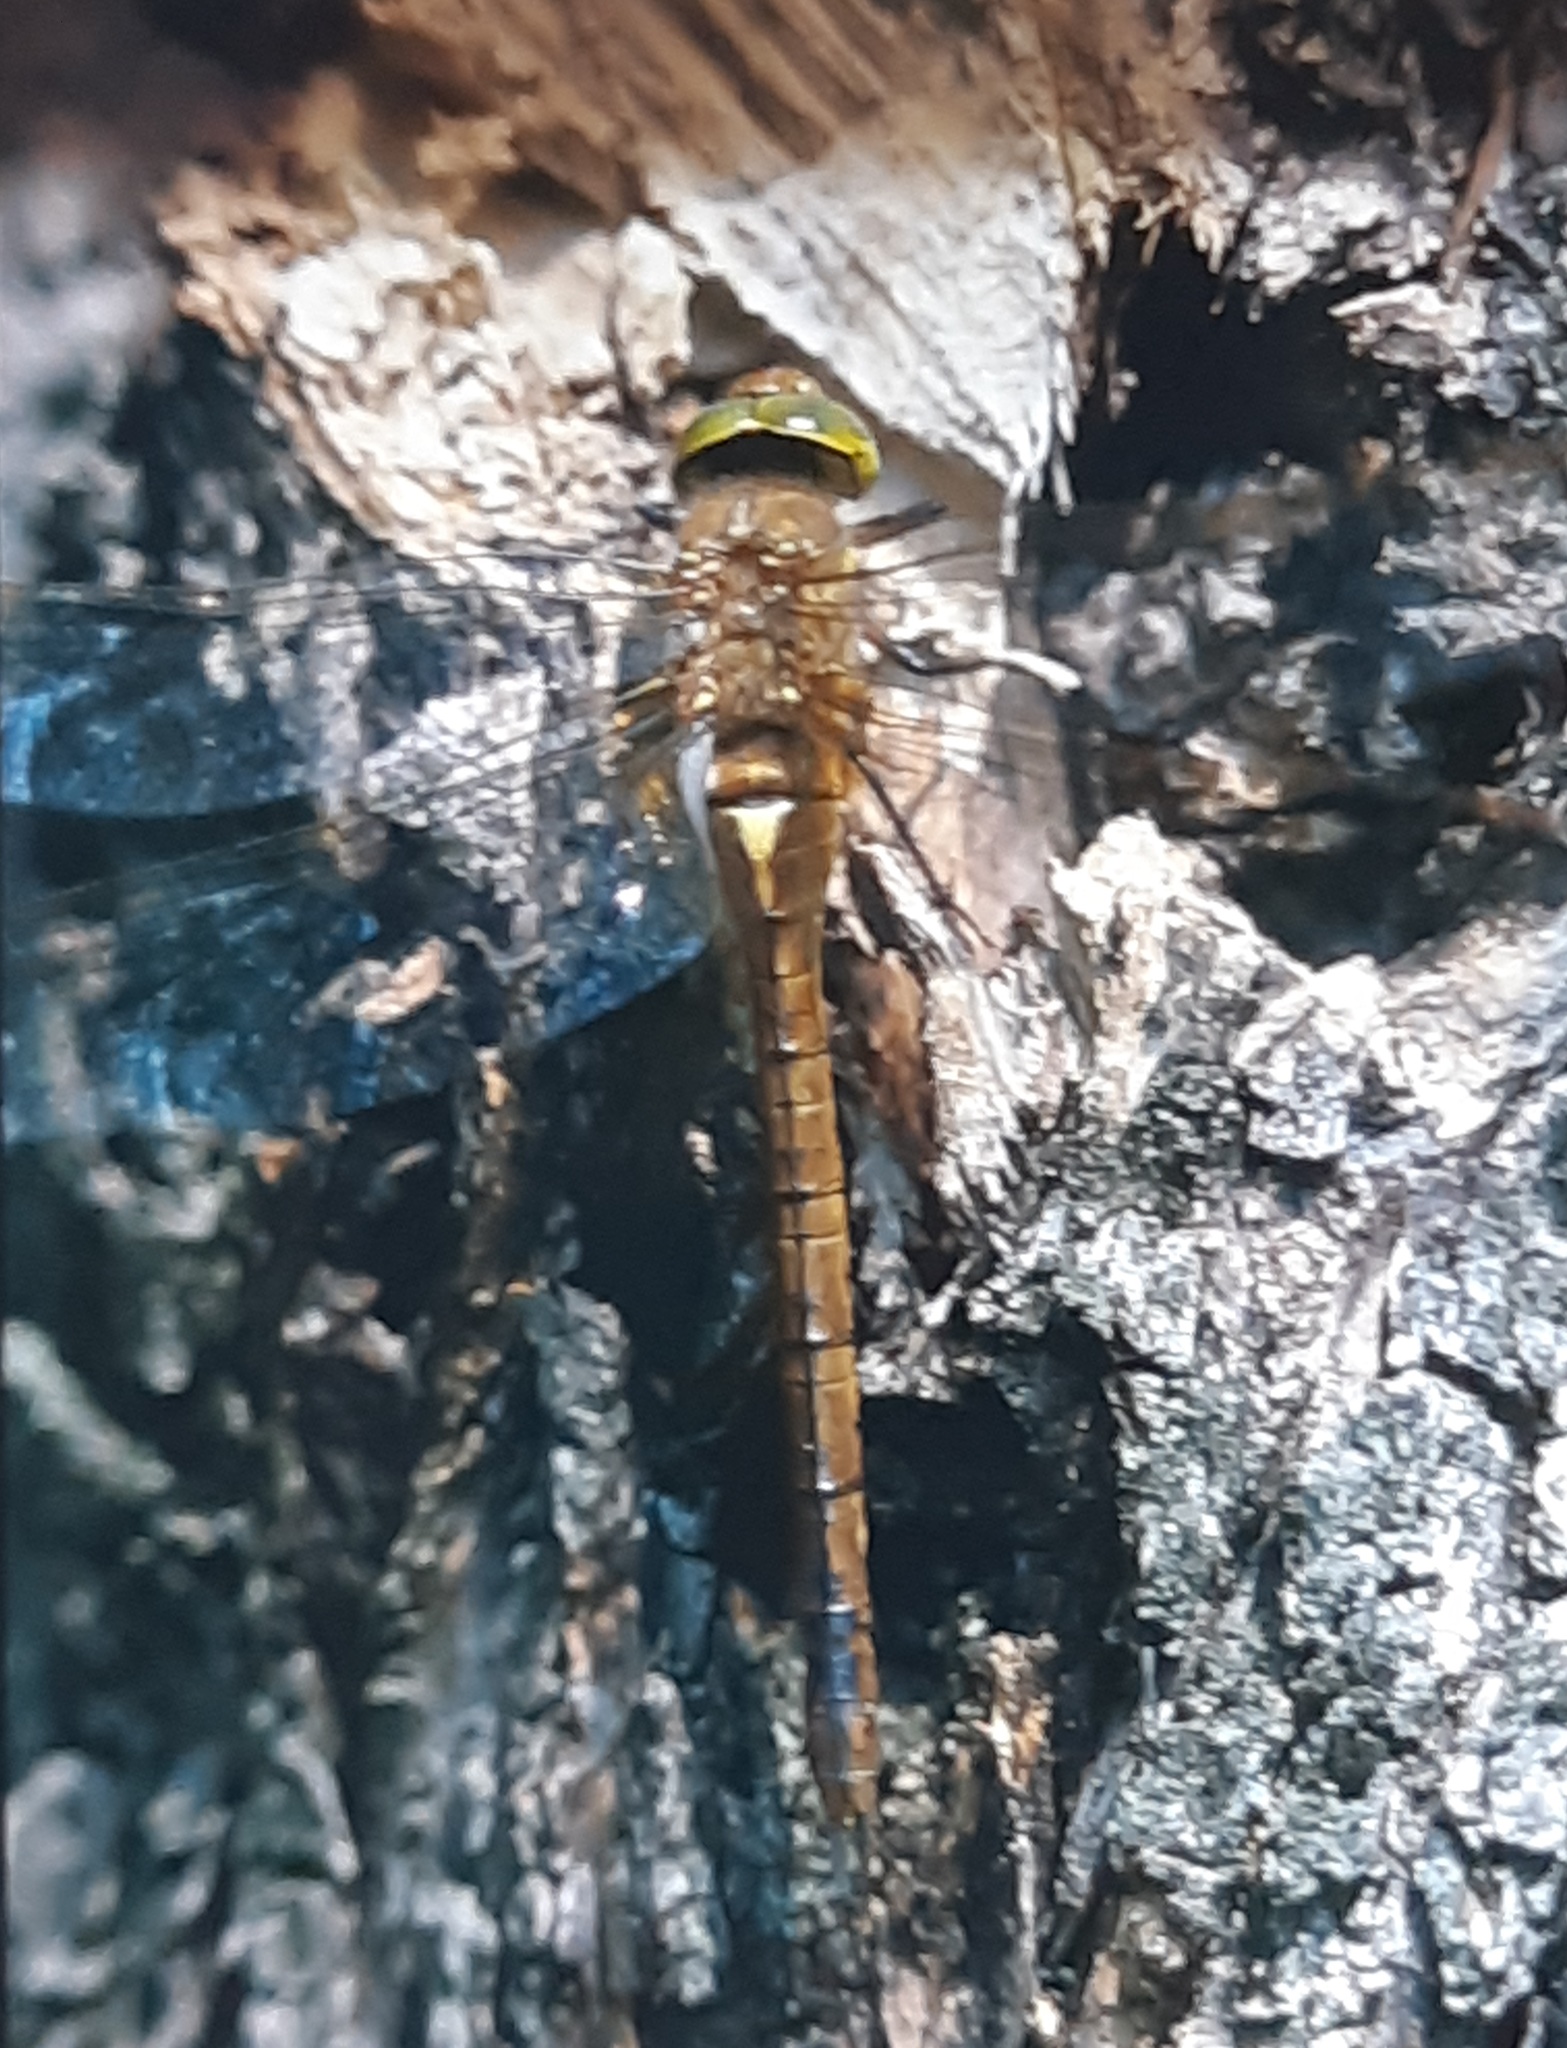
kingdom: Animalia
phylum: Arthropoda
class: Insecta
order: Odonata
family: Aeshnidae
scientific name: Aeshnidae
